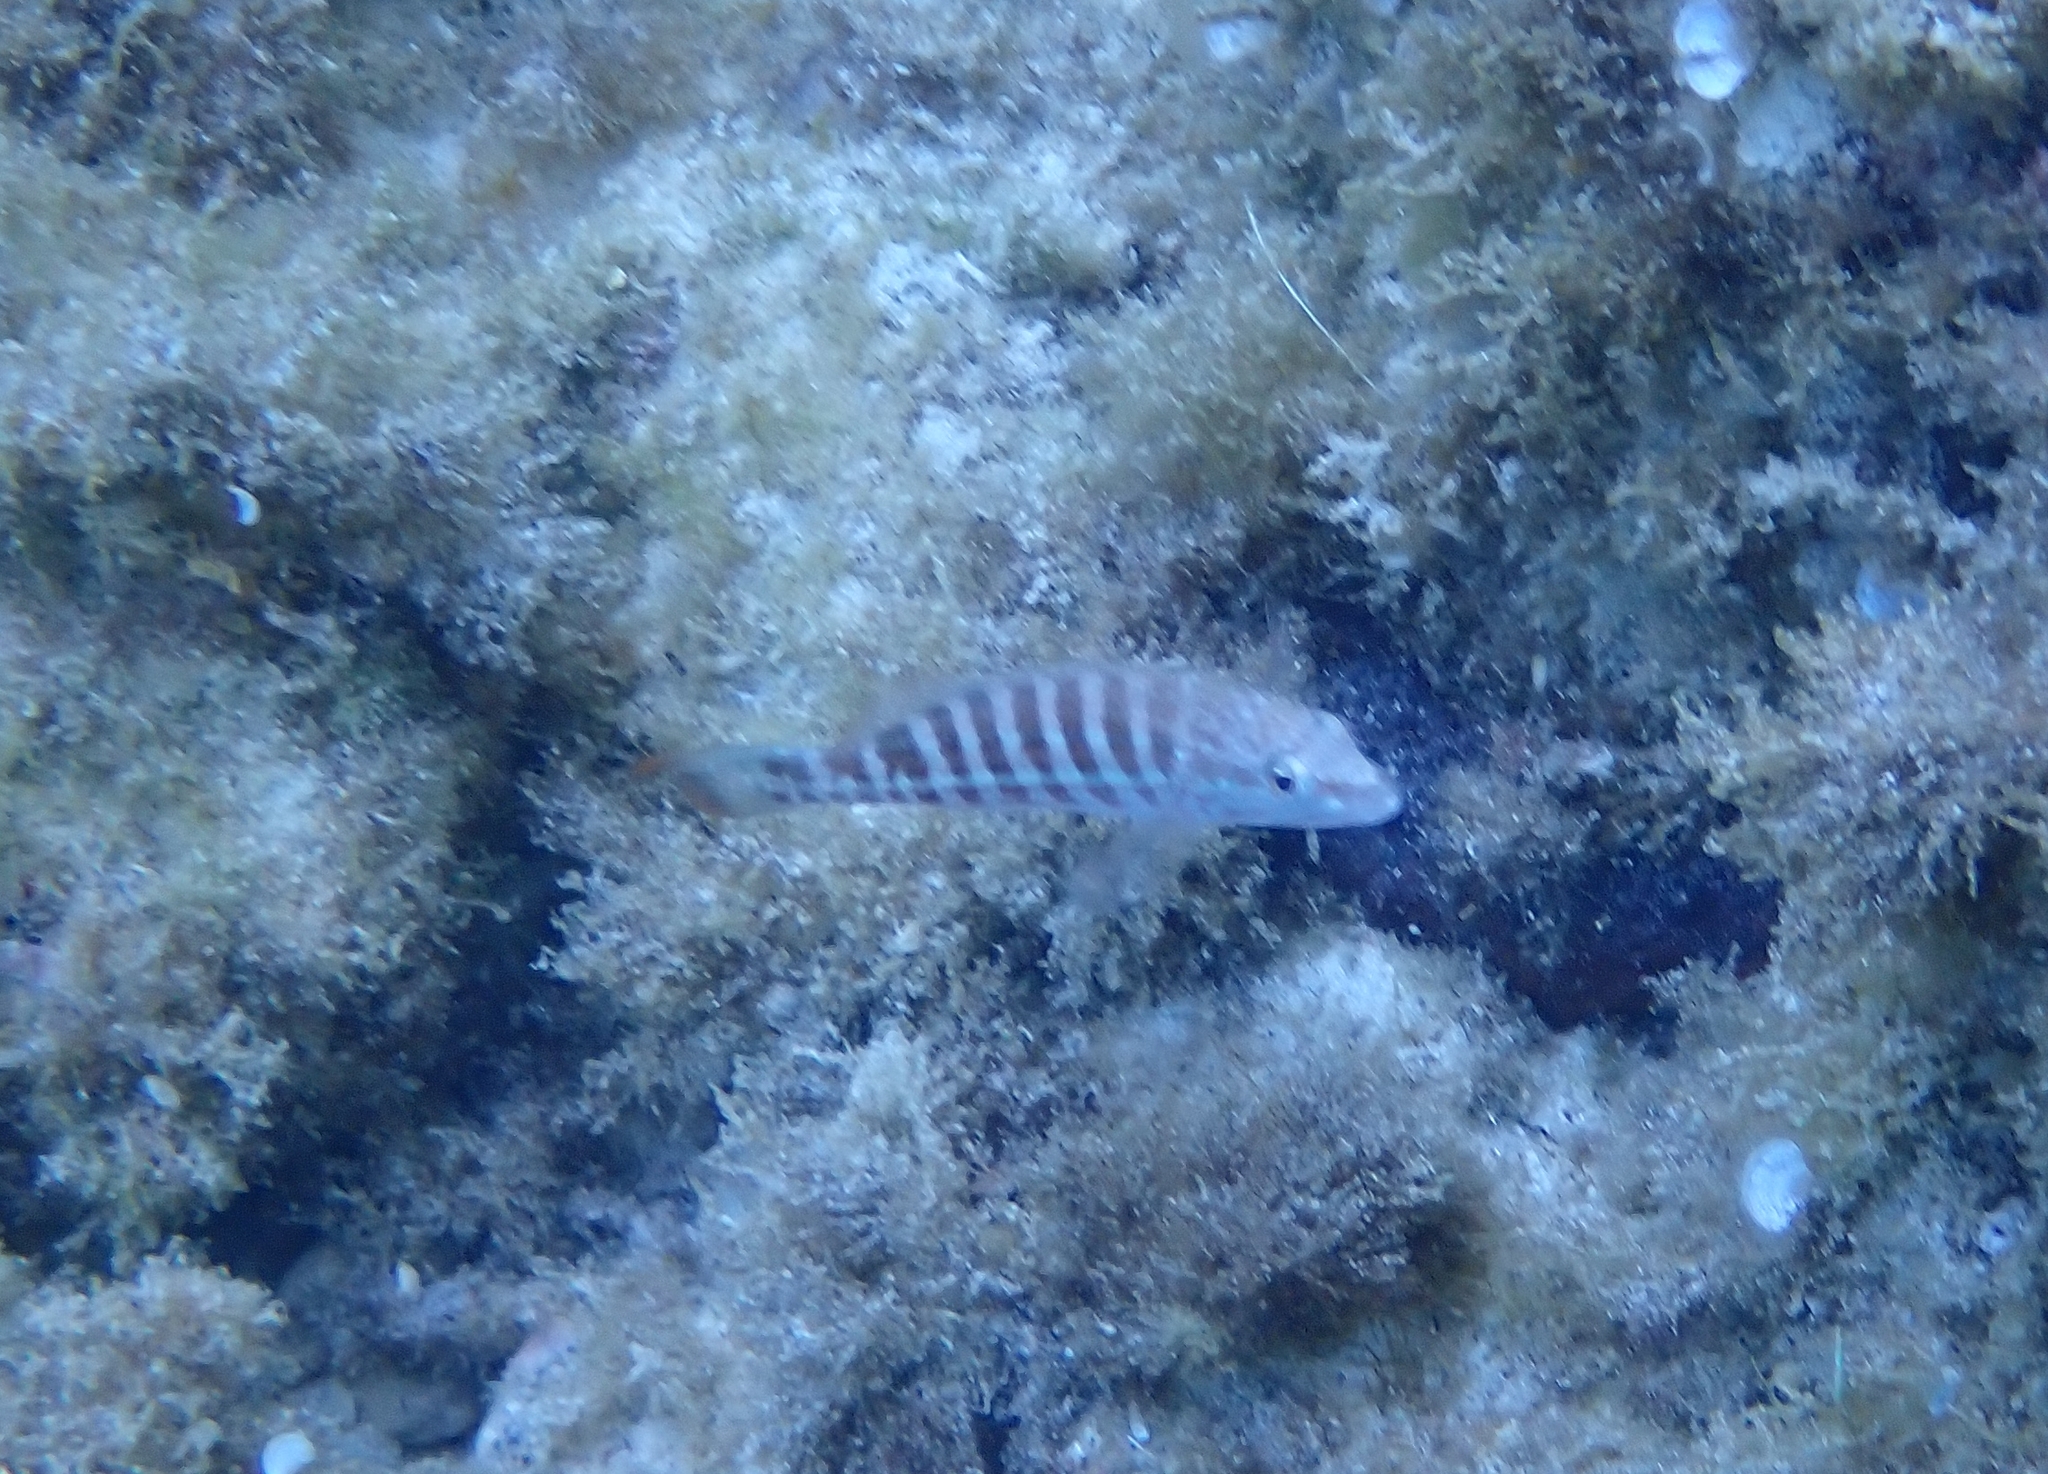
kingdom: Animalia
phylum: Chordata
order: Perciformes
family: Serranidae
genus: Serranus
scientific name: Serranus cabrilla
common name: Comber
